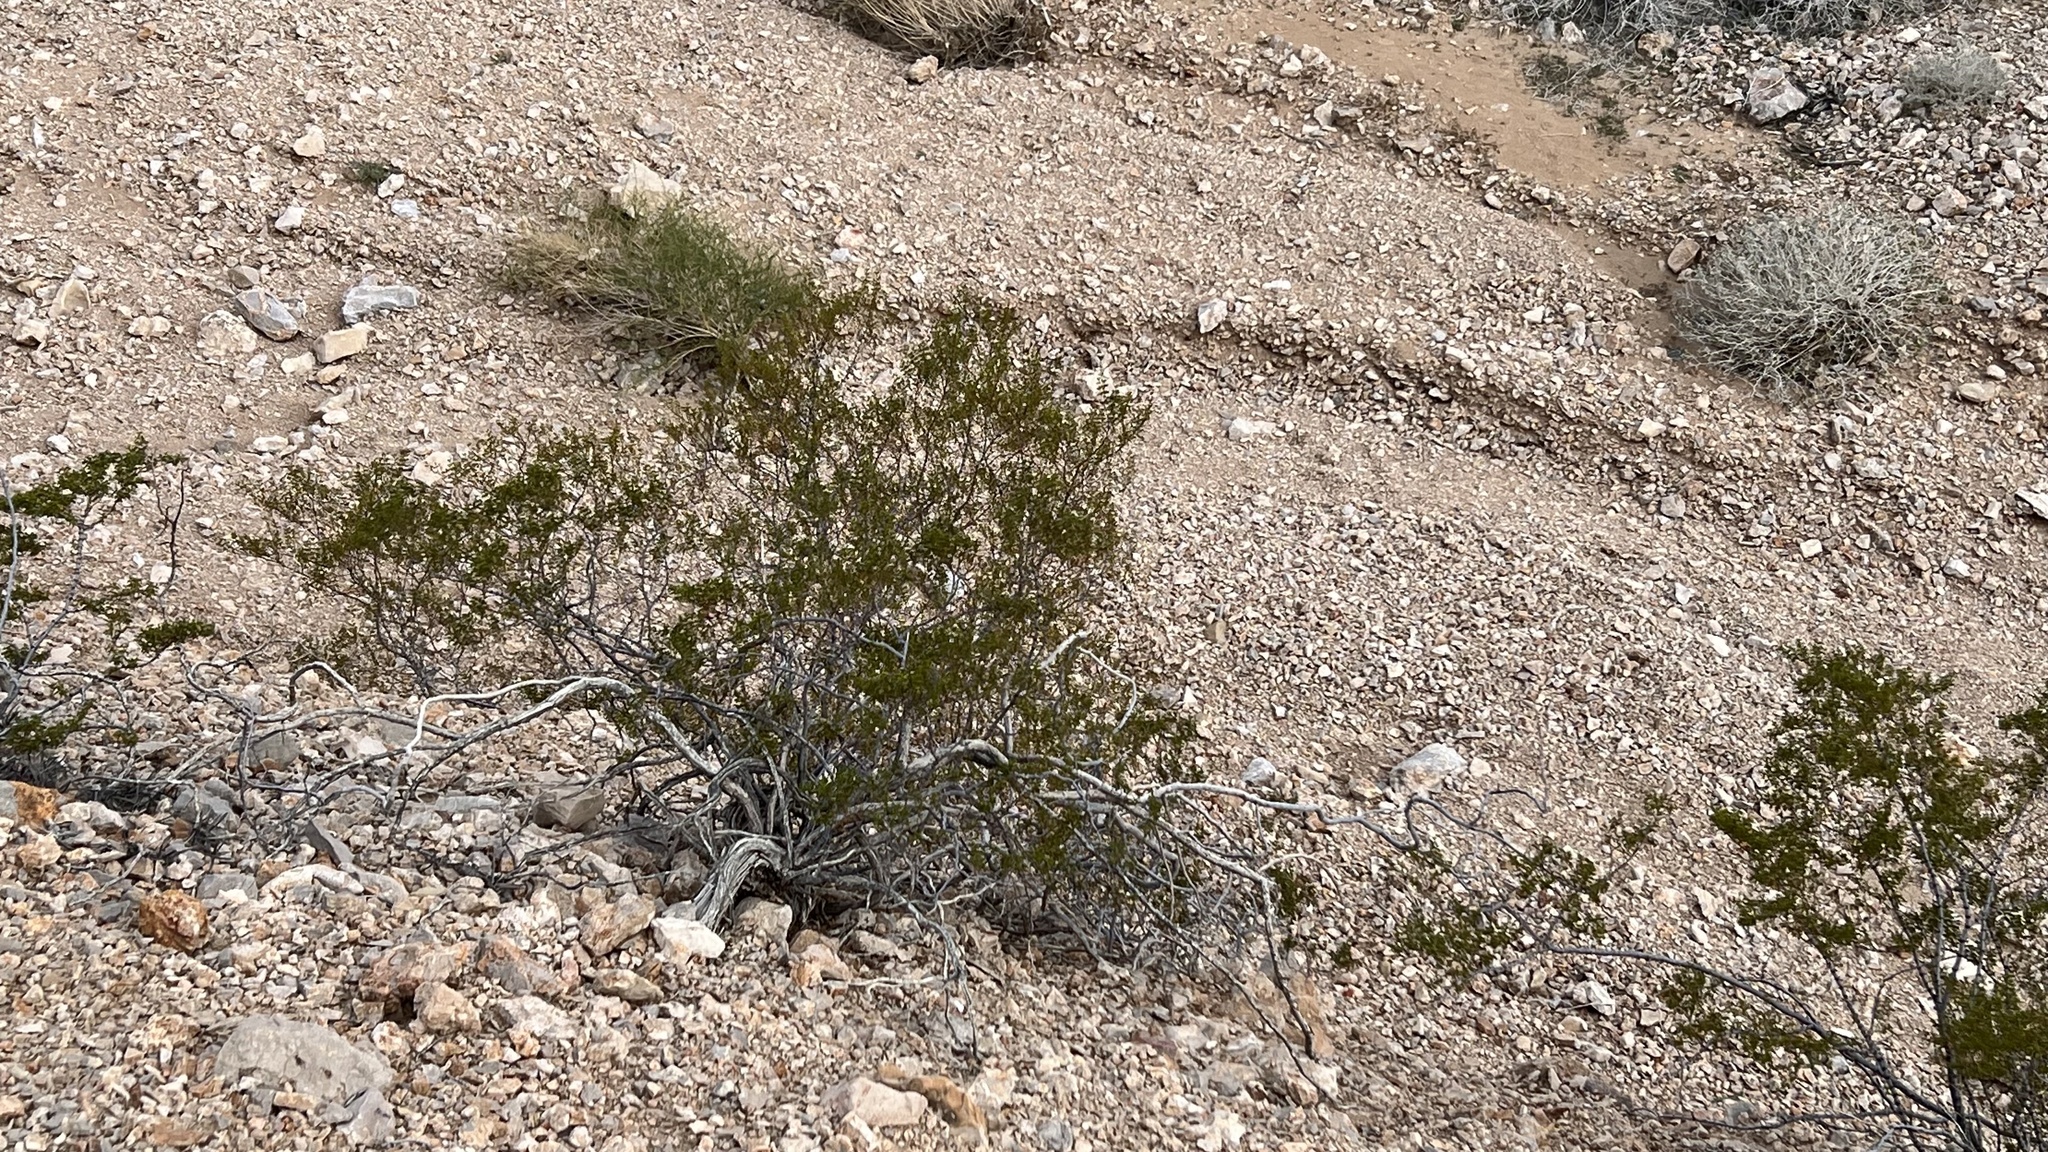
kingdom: Plantae
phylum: Tracheophyta
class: Magnoliopsida
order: Zygophyllales
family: Zygophyllaceae
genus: Larrea
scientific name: Larrea tridentata
